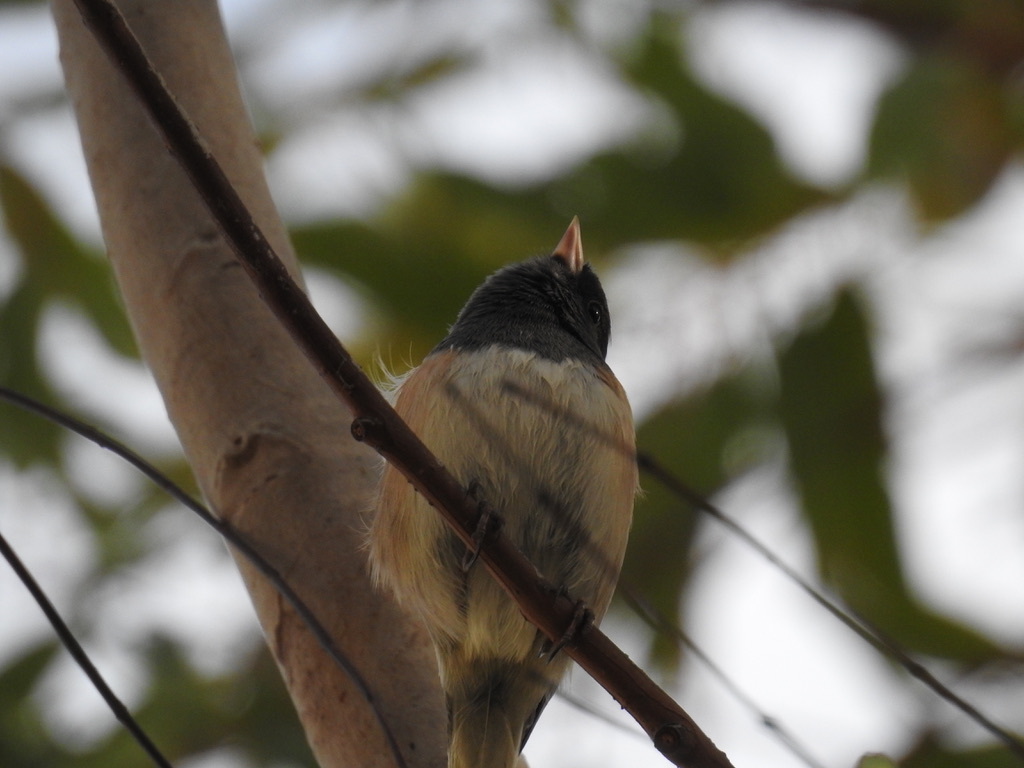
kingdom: Animalia
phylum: Chordata
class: Aves
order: Passeriformes
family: Passerellidae
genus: Junco
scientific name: Junco hyemalis
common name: Dark-eyed junco
